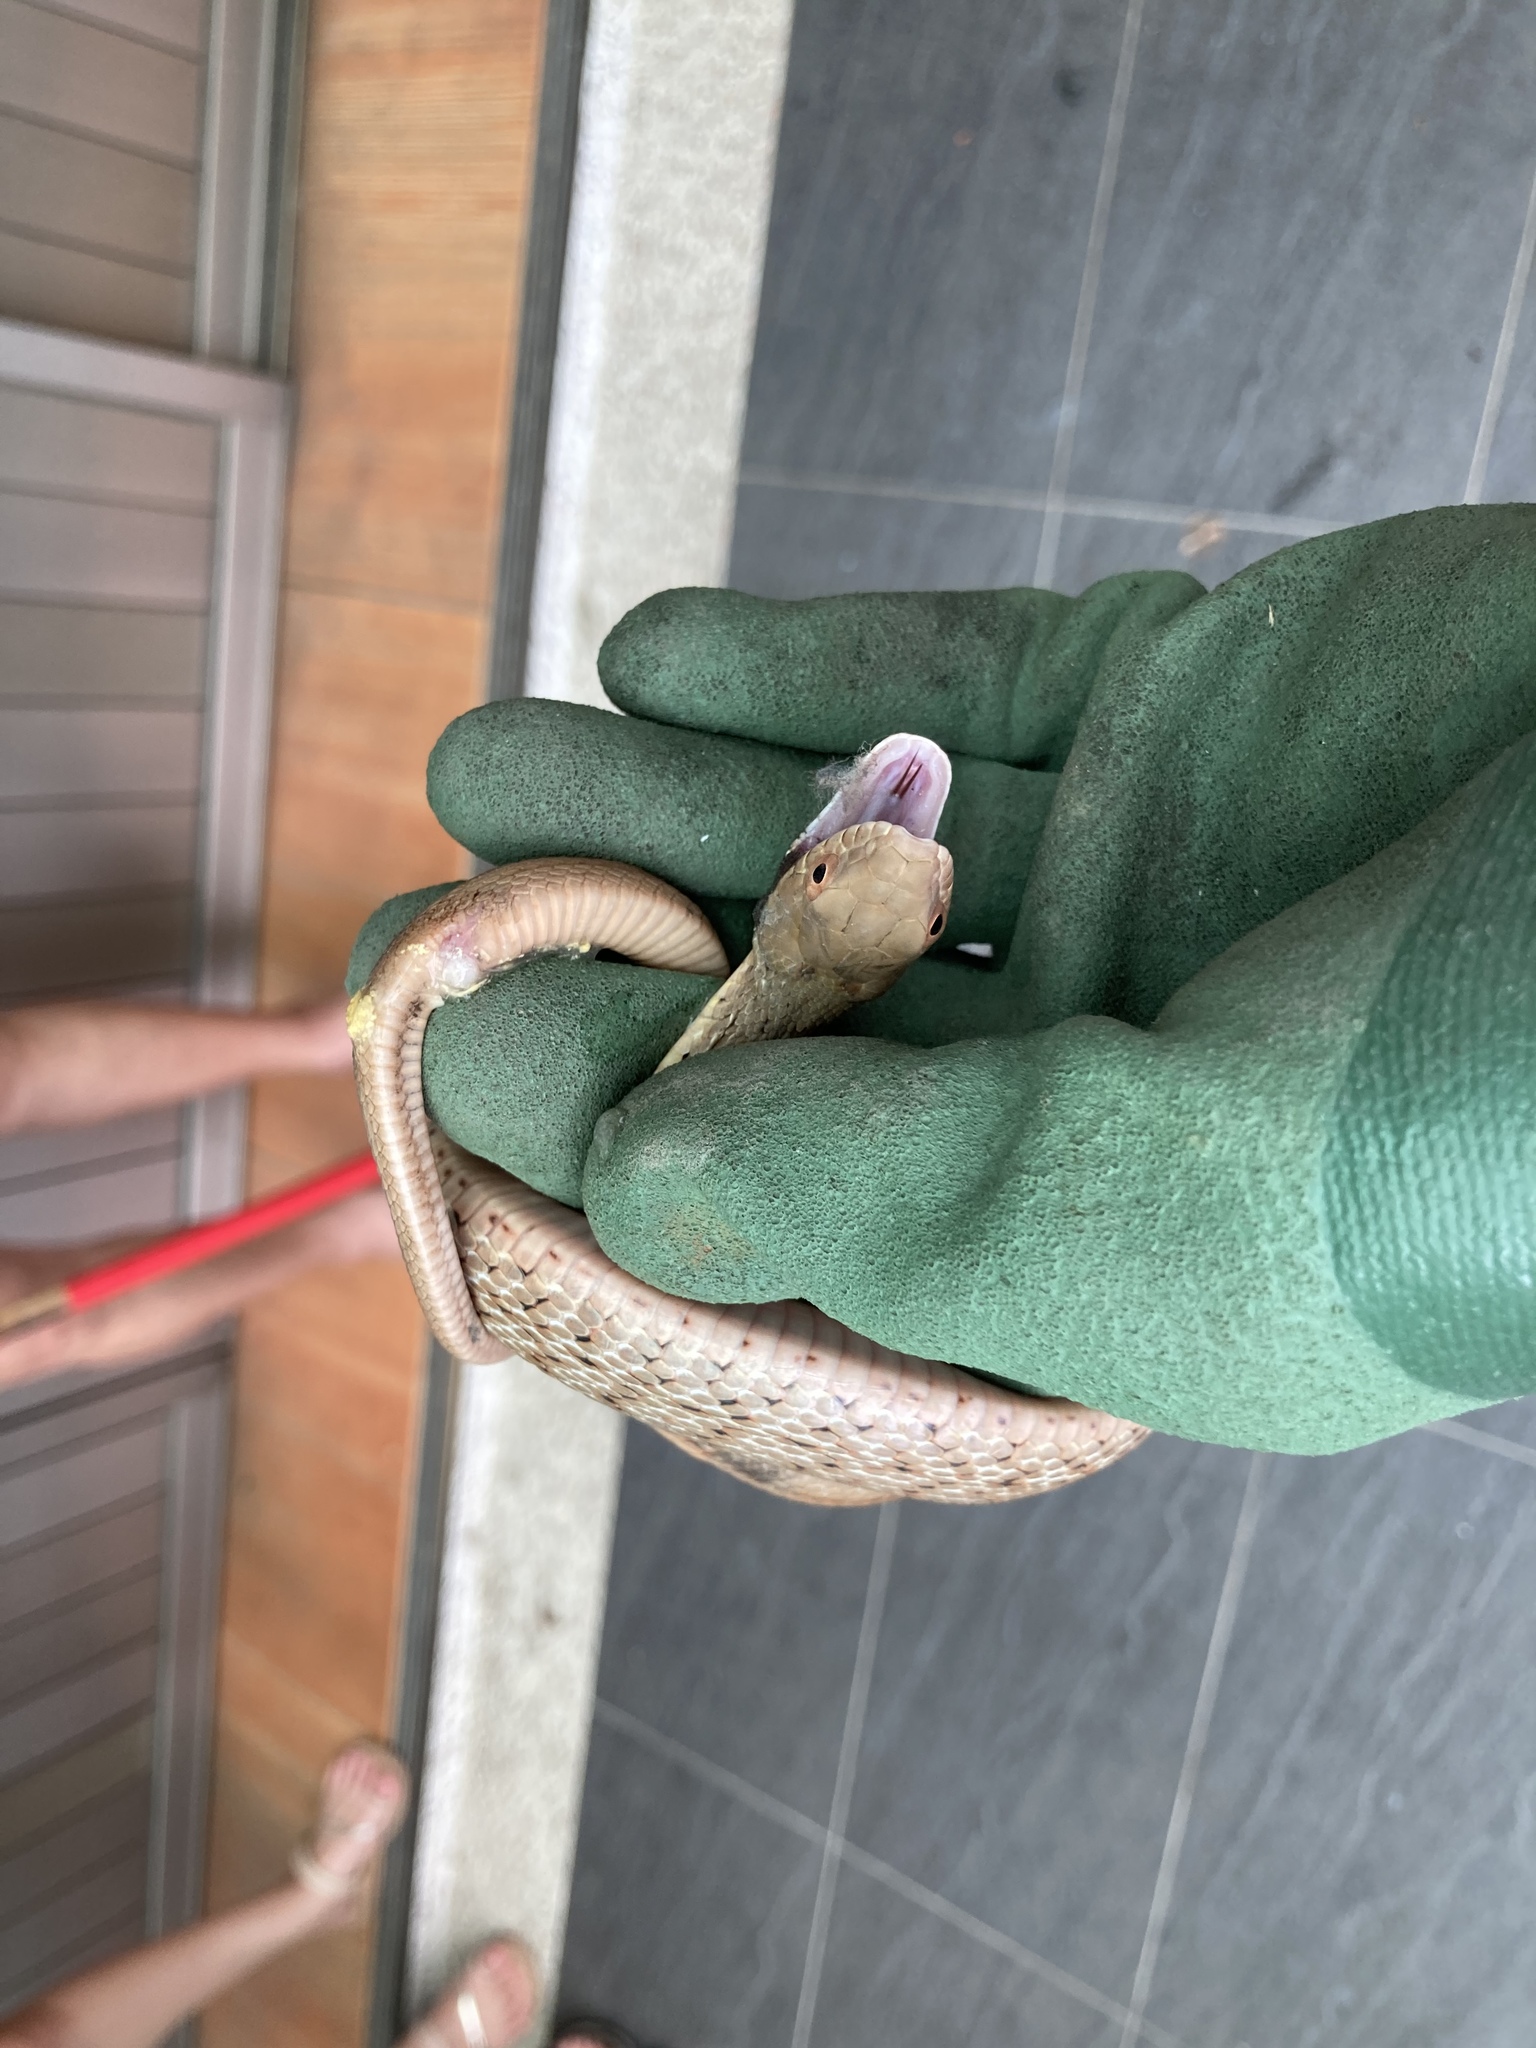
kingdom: Animalia
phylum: Chordata
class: Squamata
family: Colubridae
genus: Elaphe
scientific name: Elaphe carinata
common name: Taiwan stink snake
